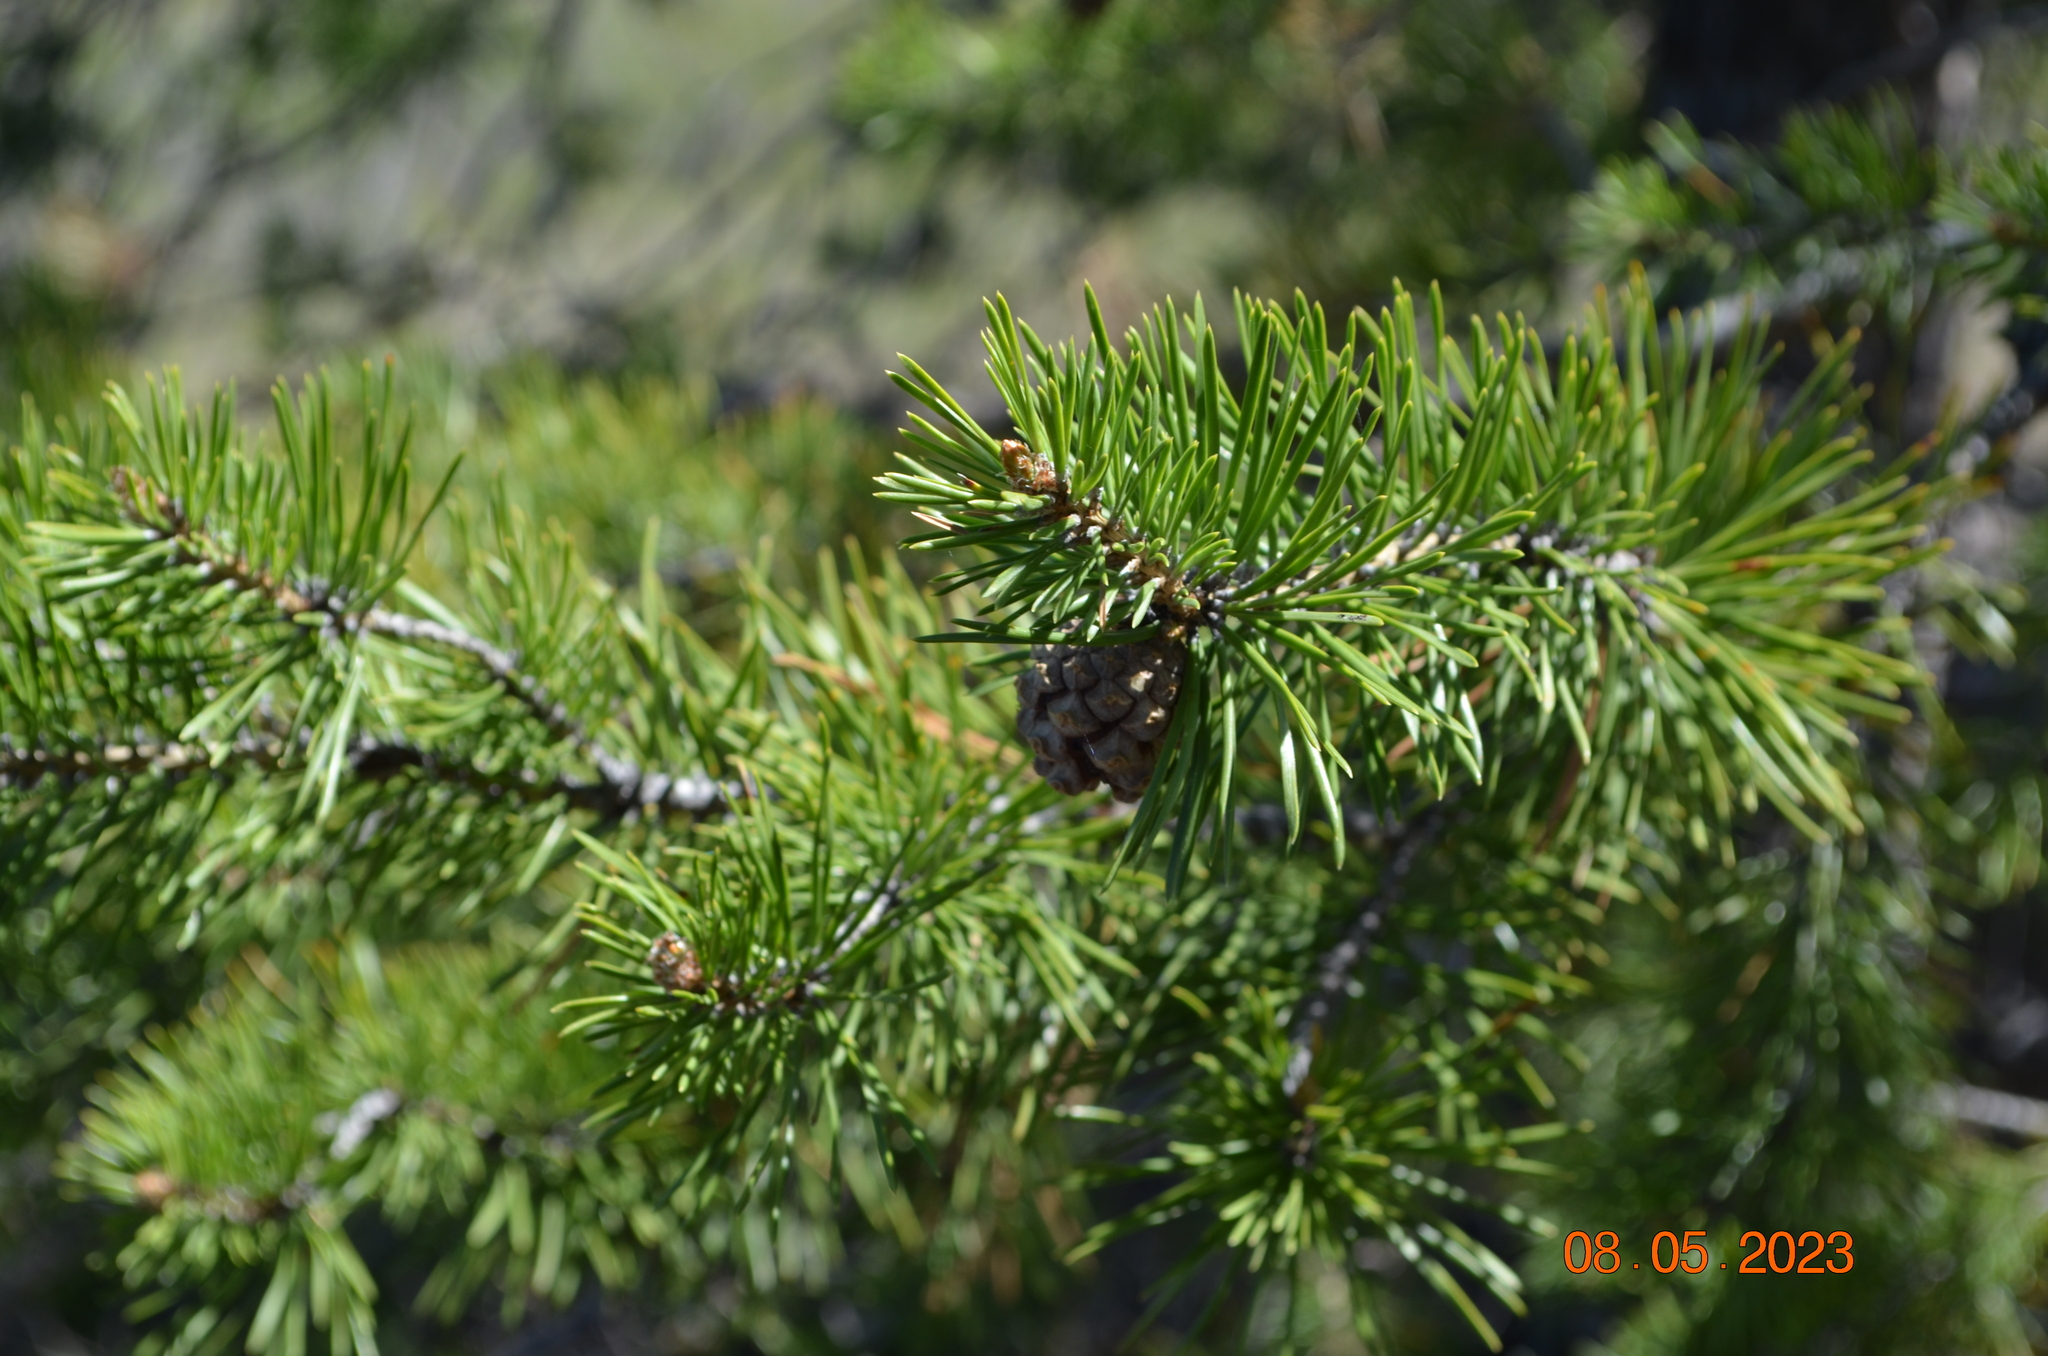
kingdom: Plantae
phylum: Tracheophyta
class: Pinopsida
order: Pinales
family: Pinaceae
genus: Pinus
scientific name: Pinus sylvestris
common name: Scots pine
